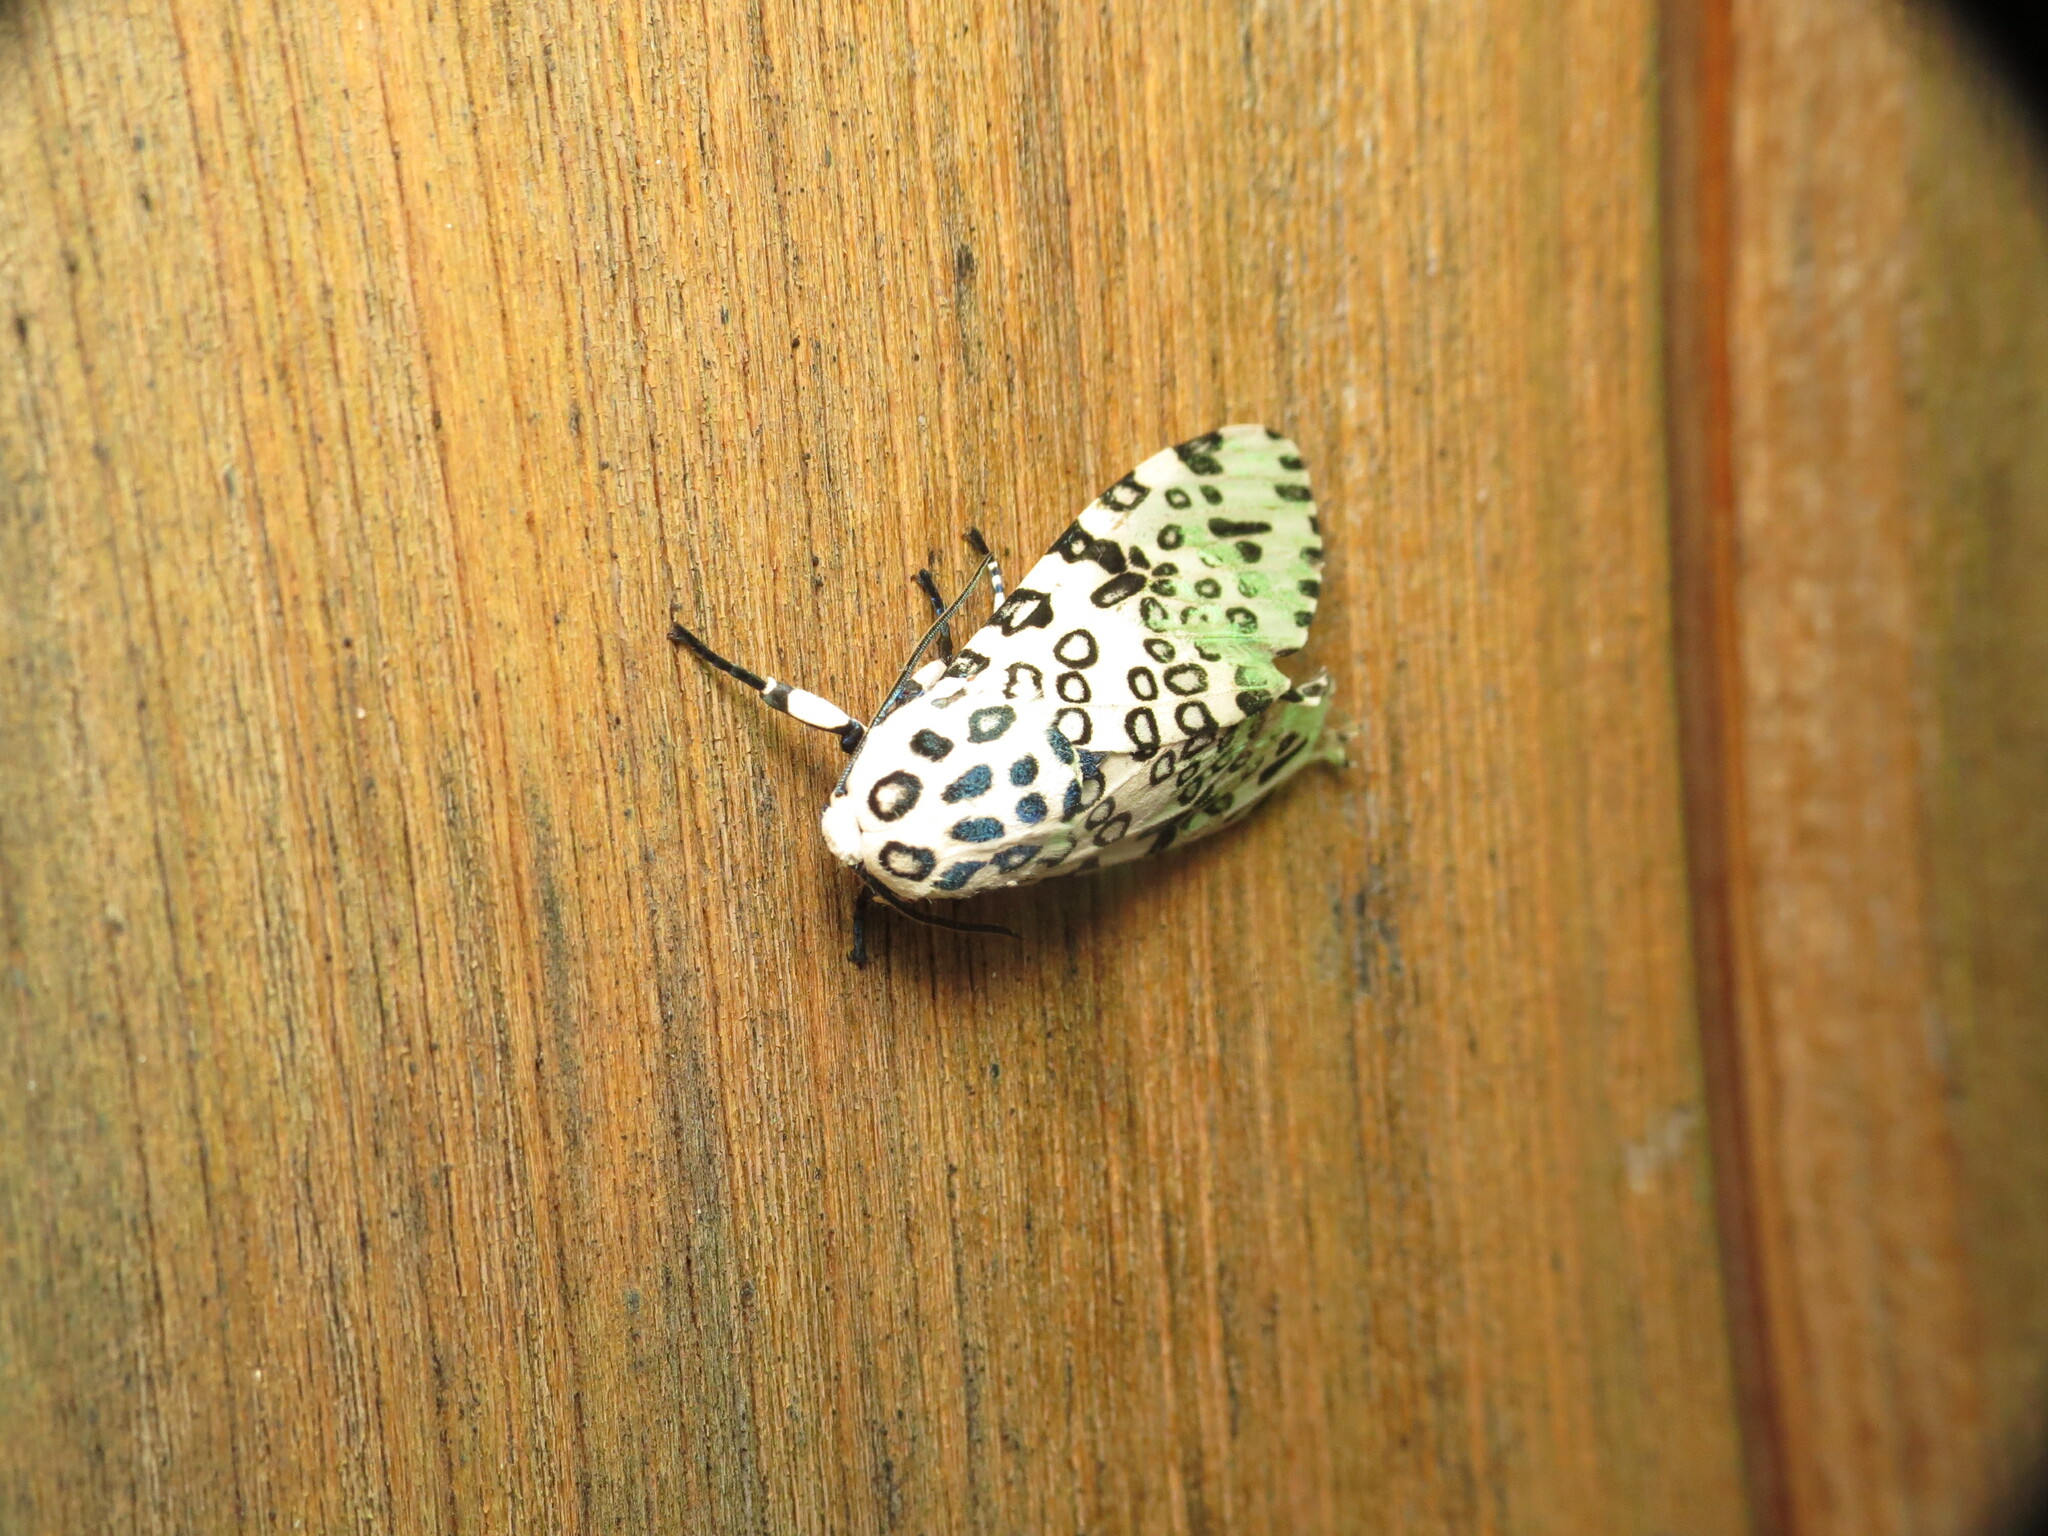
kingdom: Animalia
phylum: Arthropoda
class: Insecta
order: Lepidoptera
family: Erebidae
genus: Hypercompe
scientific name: Hypercompe scribonia
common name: Giant leopard moth
